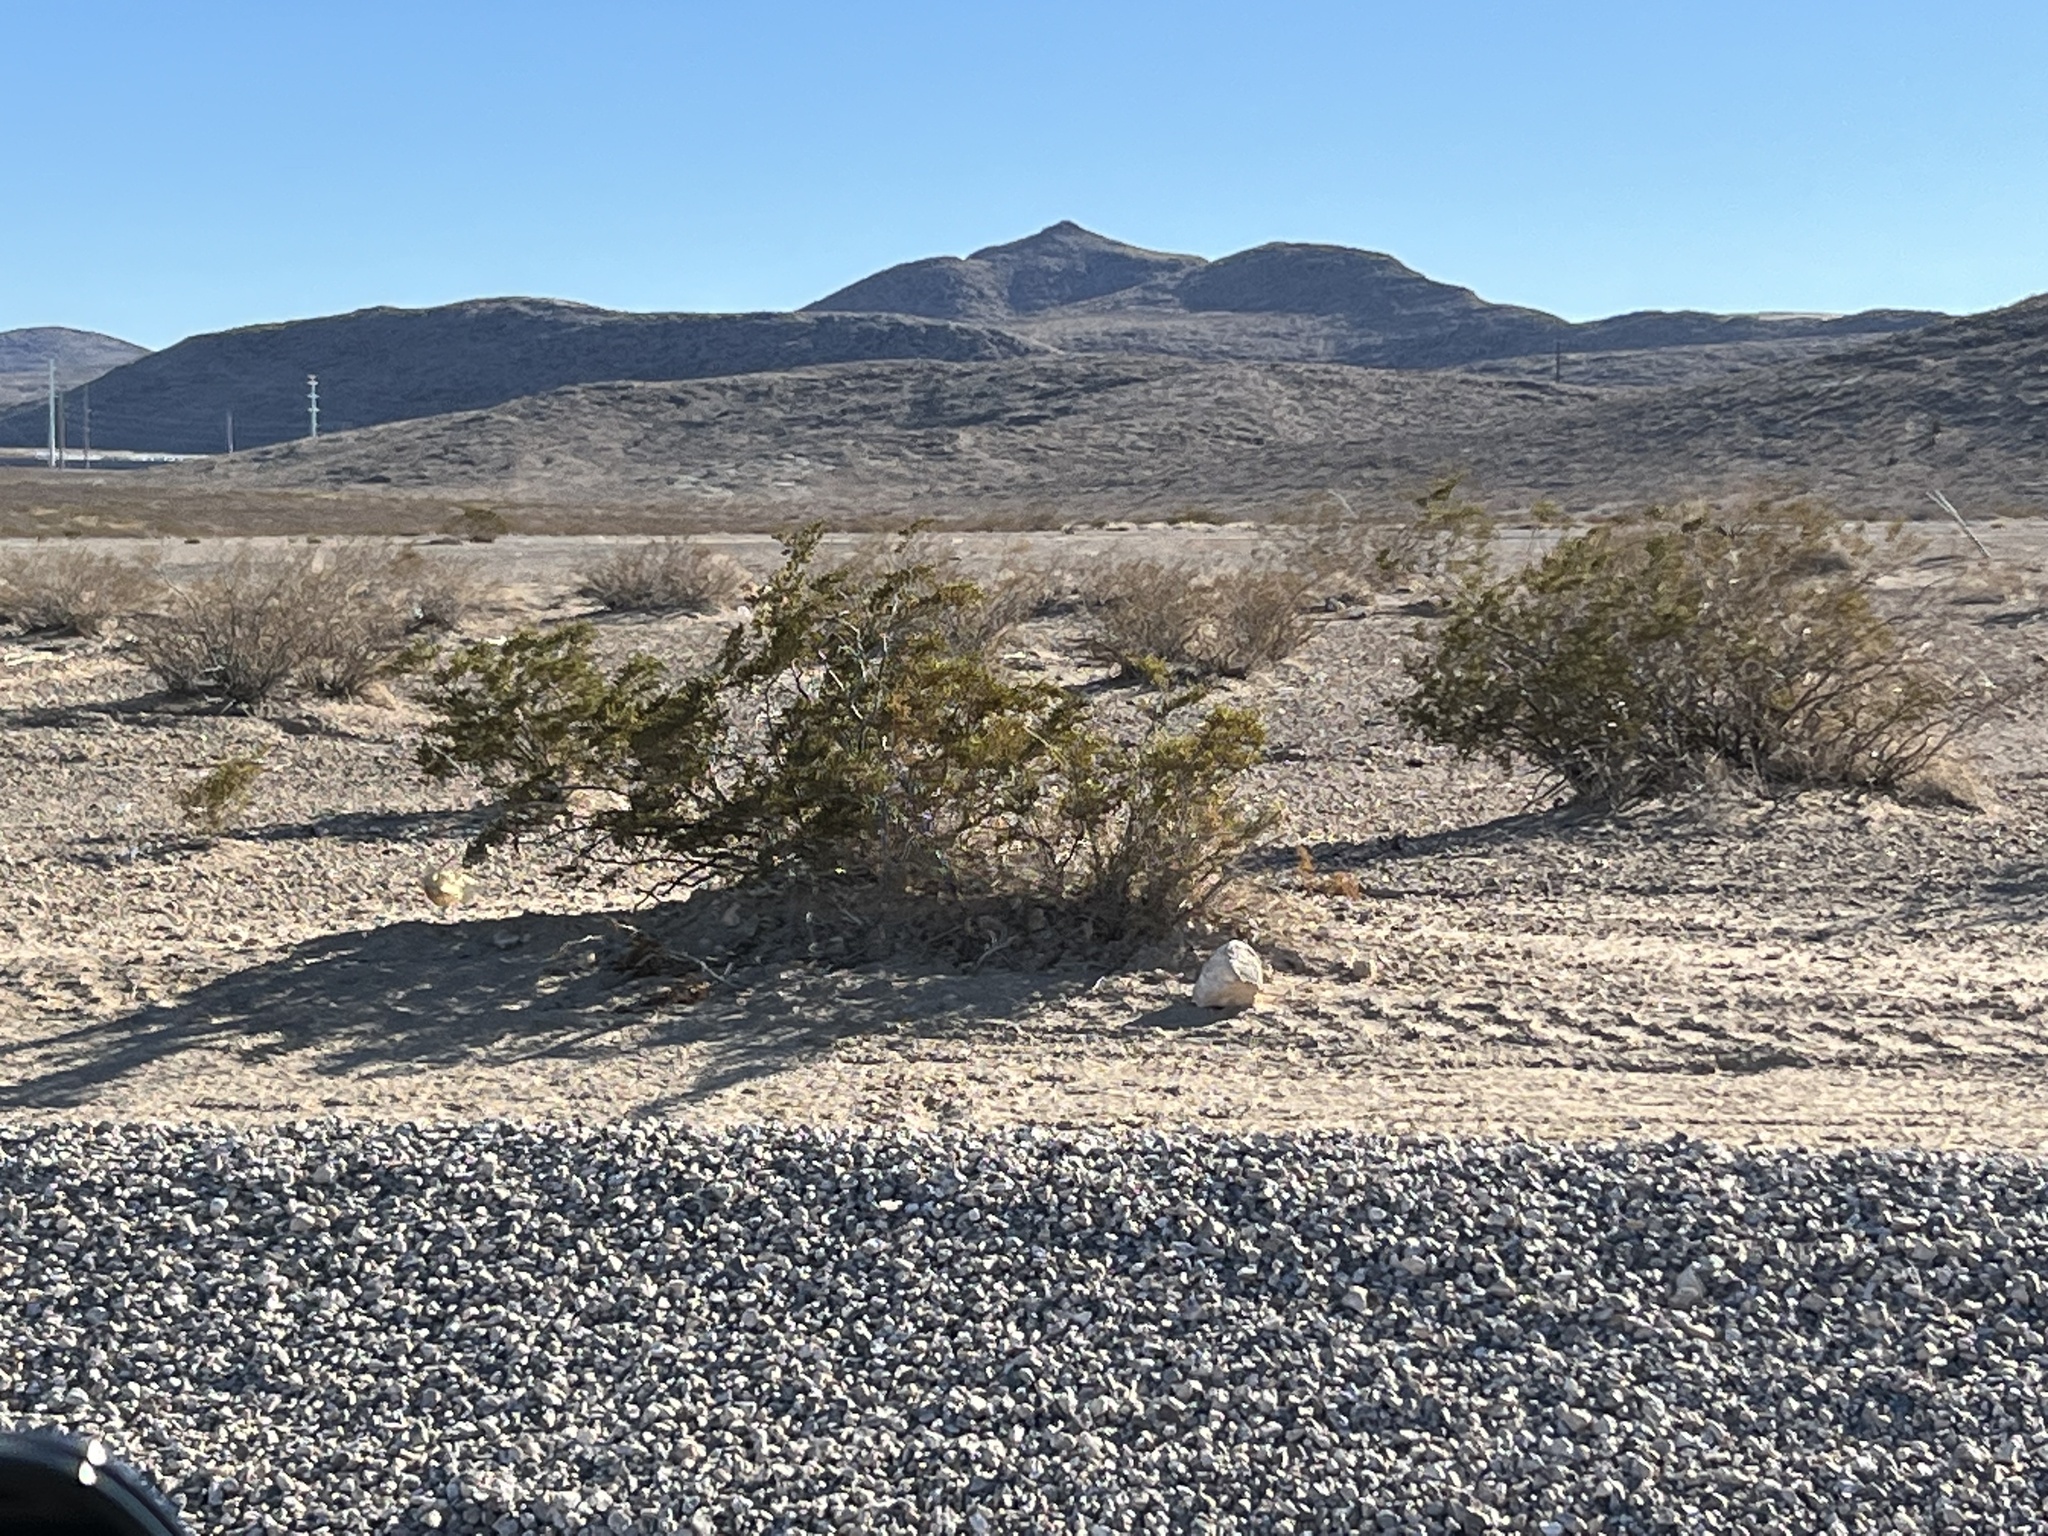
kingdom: Plantae
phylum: Tracheophyta
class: Magnoliopsida
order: Zygophyllales
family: Zygophyllaceae
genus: Larrea
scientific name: Larrea tridentata
